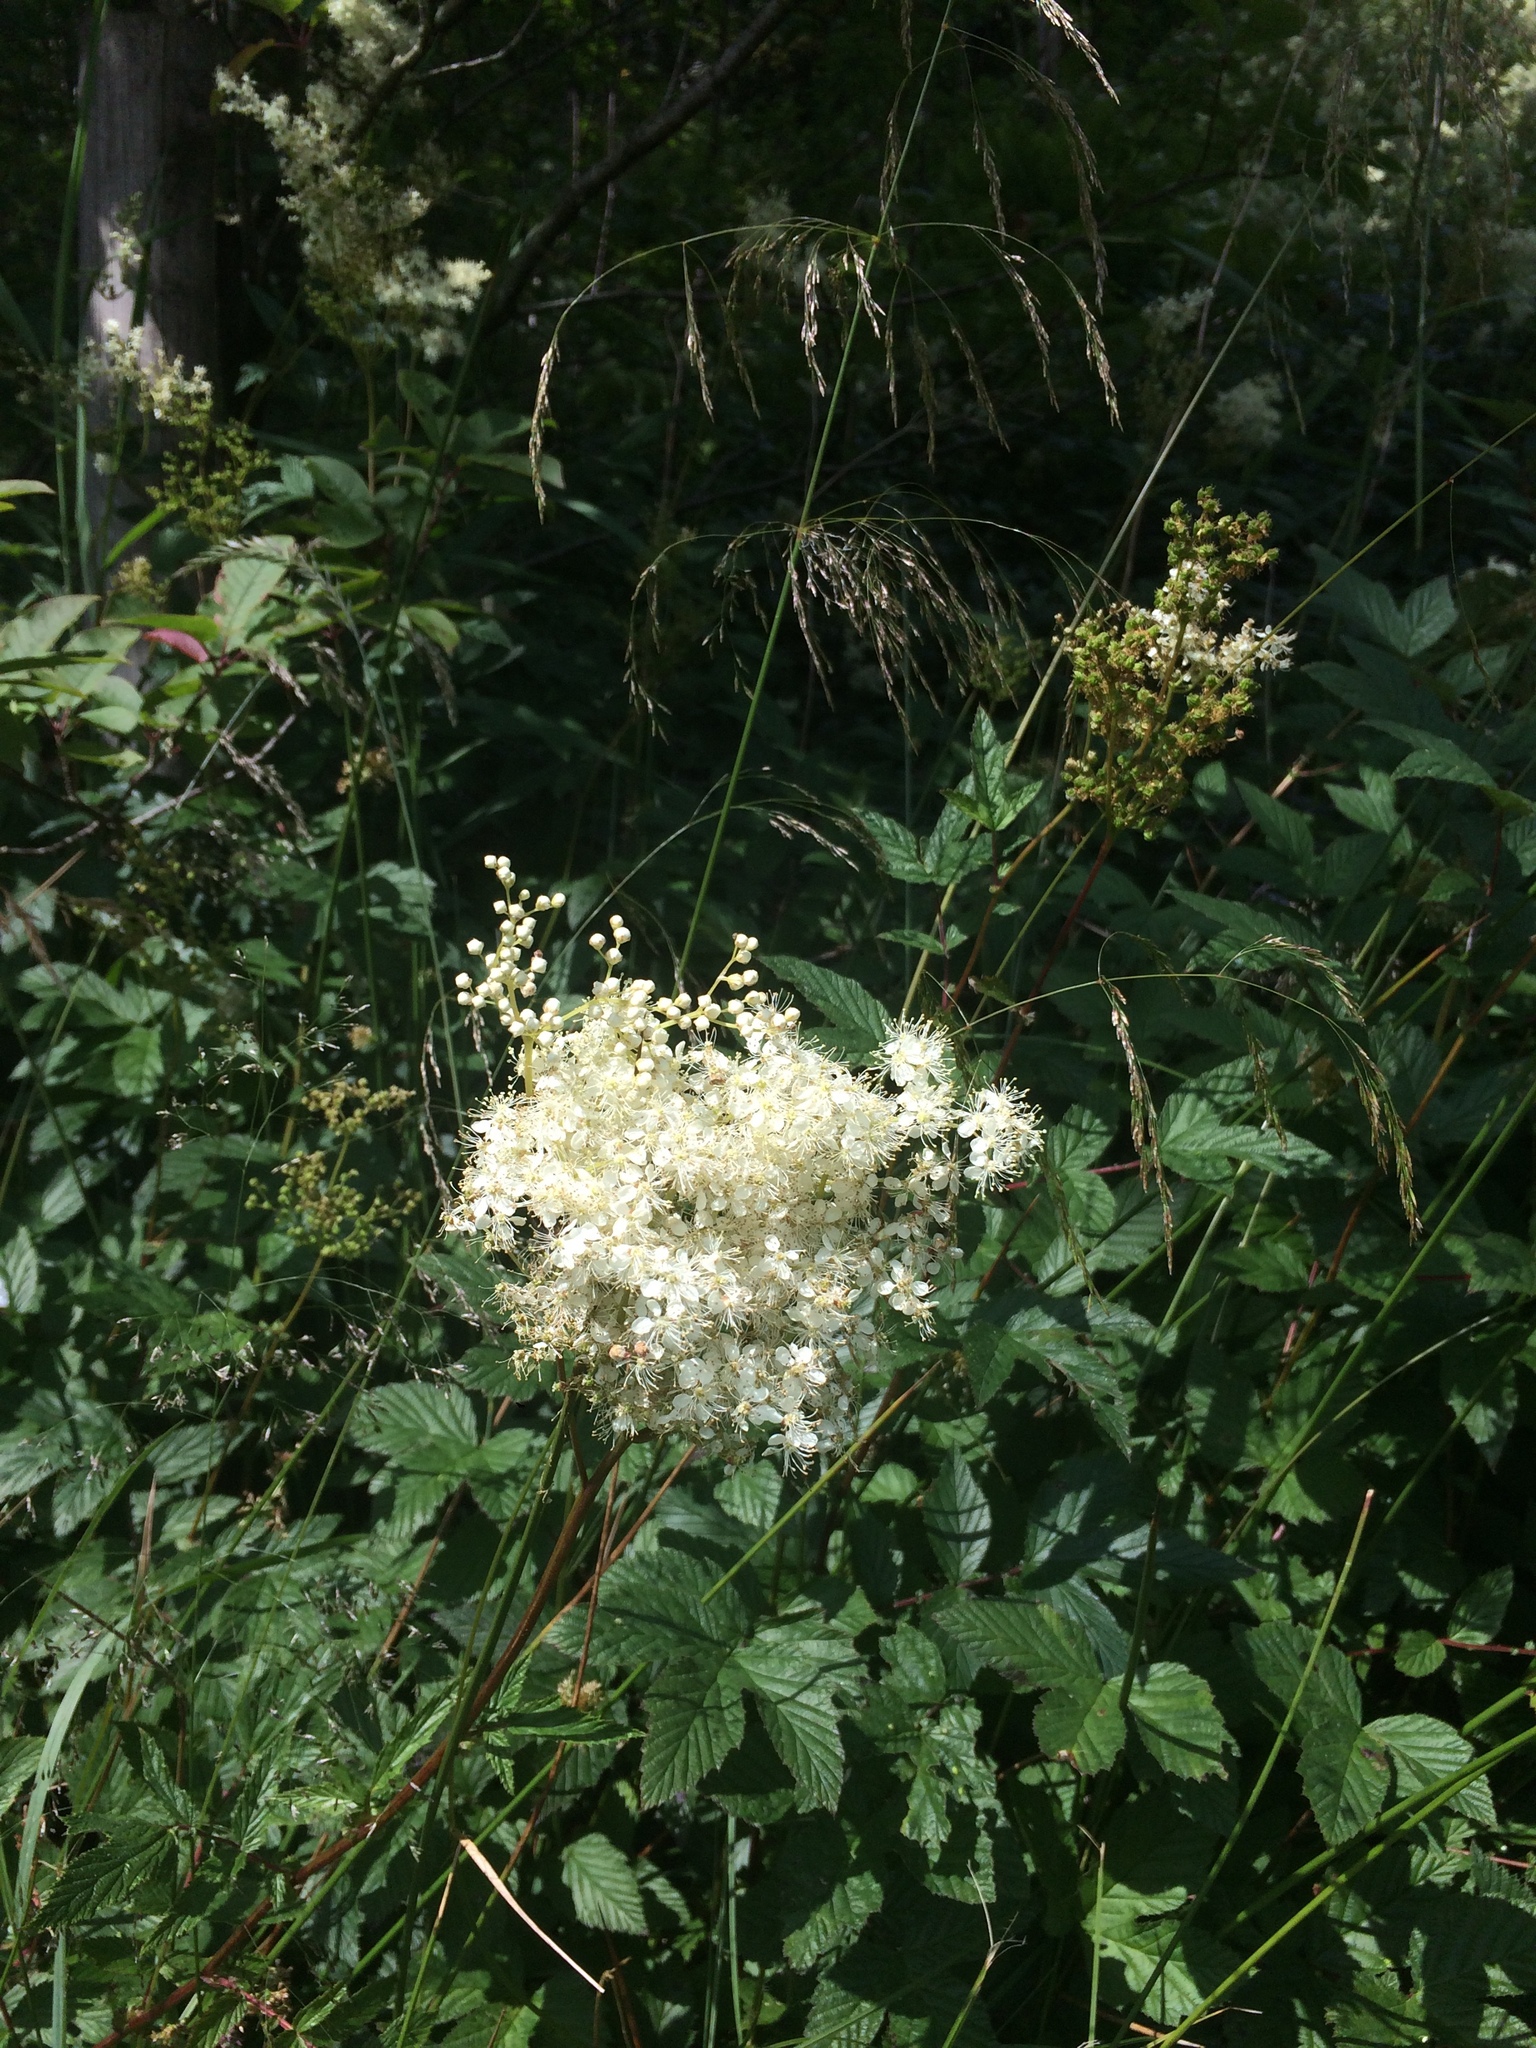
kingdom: Plantae
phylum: Tracheophyta
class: Magnoliopsida
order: Rosales
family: Rosaceae
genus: Filipendula
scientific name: Filipendula ulmaria
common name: Meadowsweet
